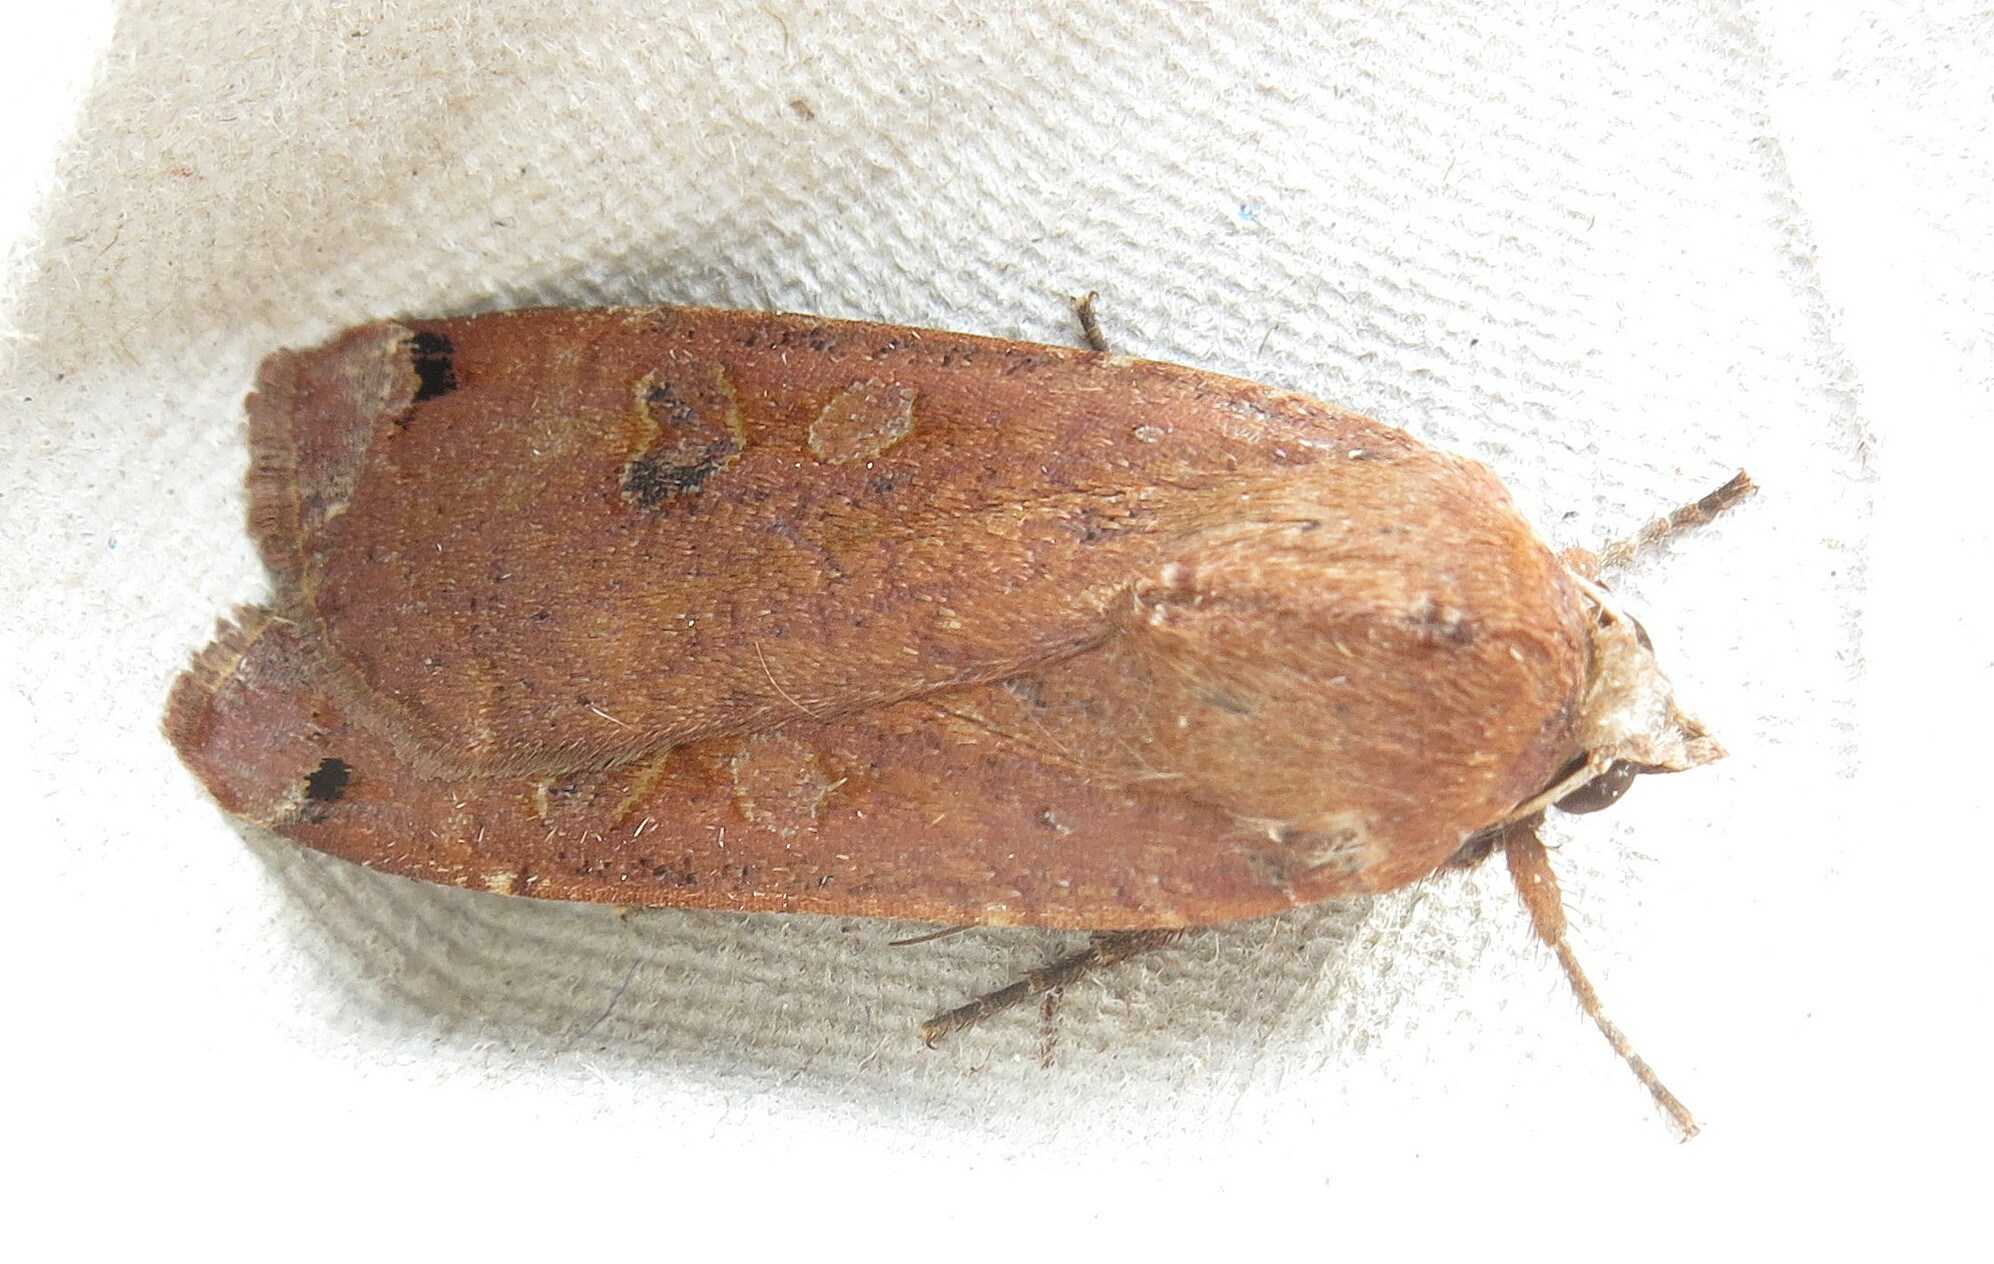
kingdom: Animalia
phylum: Arthropoda
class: Insecta
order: Lepidoptera
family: Noctuidae
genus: Noctua
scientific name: Noctua pronuba
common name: Large yellow underwing
